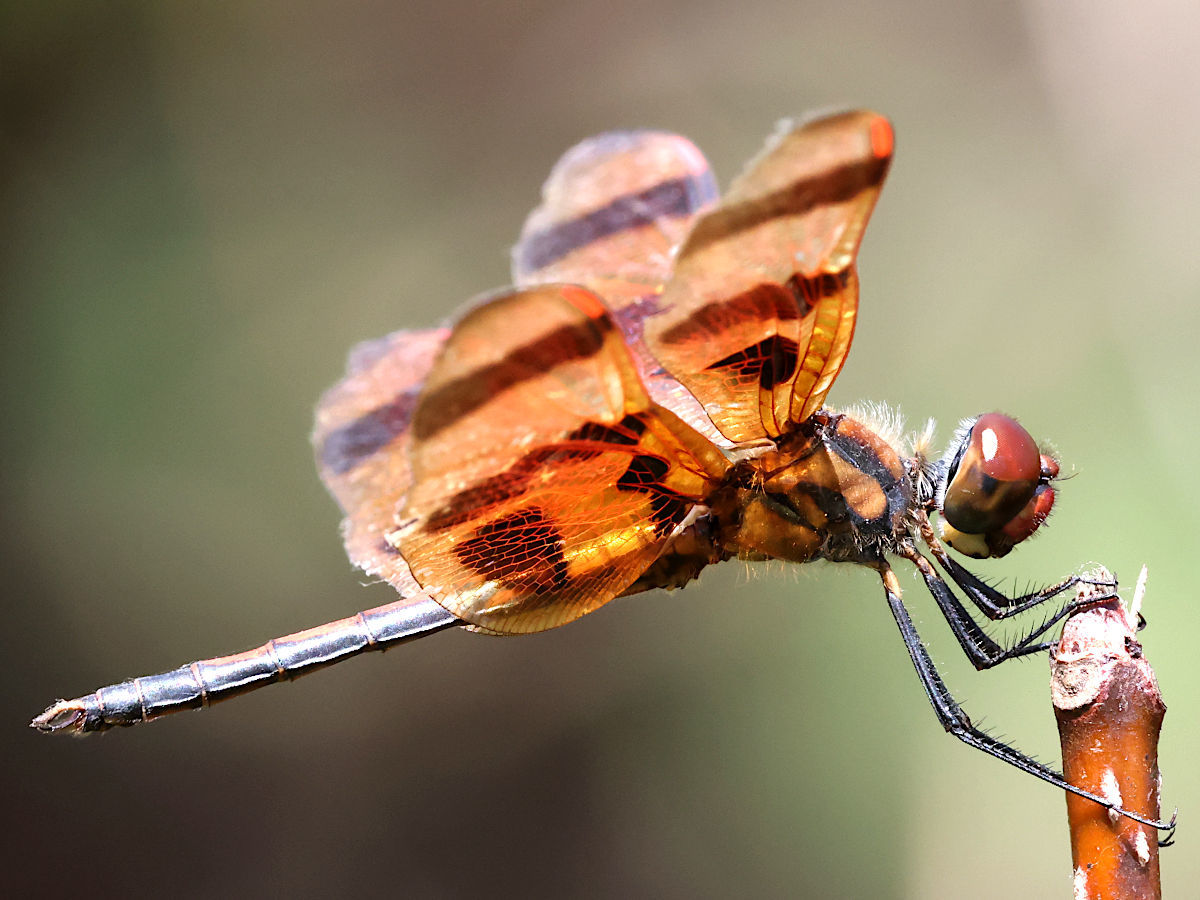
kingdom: Animalia
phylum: Arthropoda
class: Insecta
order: Odonata
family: Libellulidae
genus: Celithemis
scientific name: Celithemis eponina
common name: Halloween pennant
